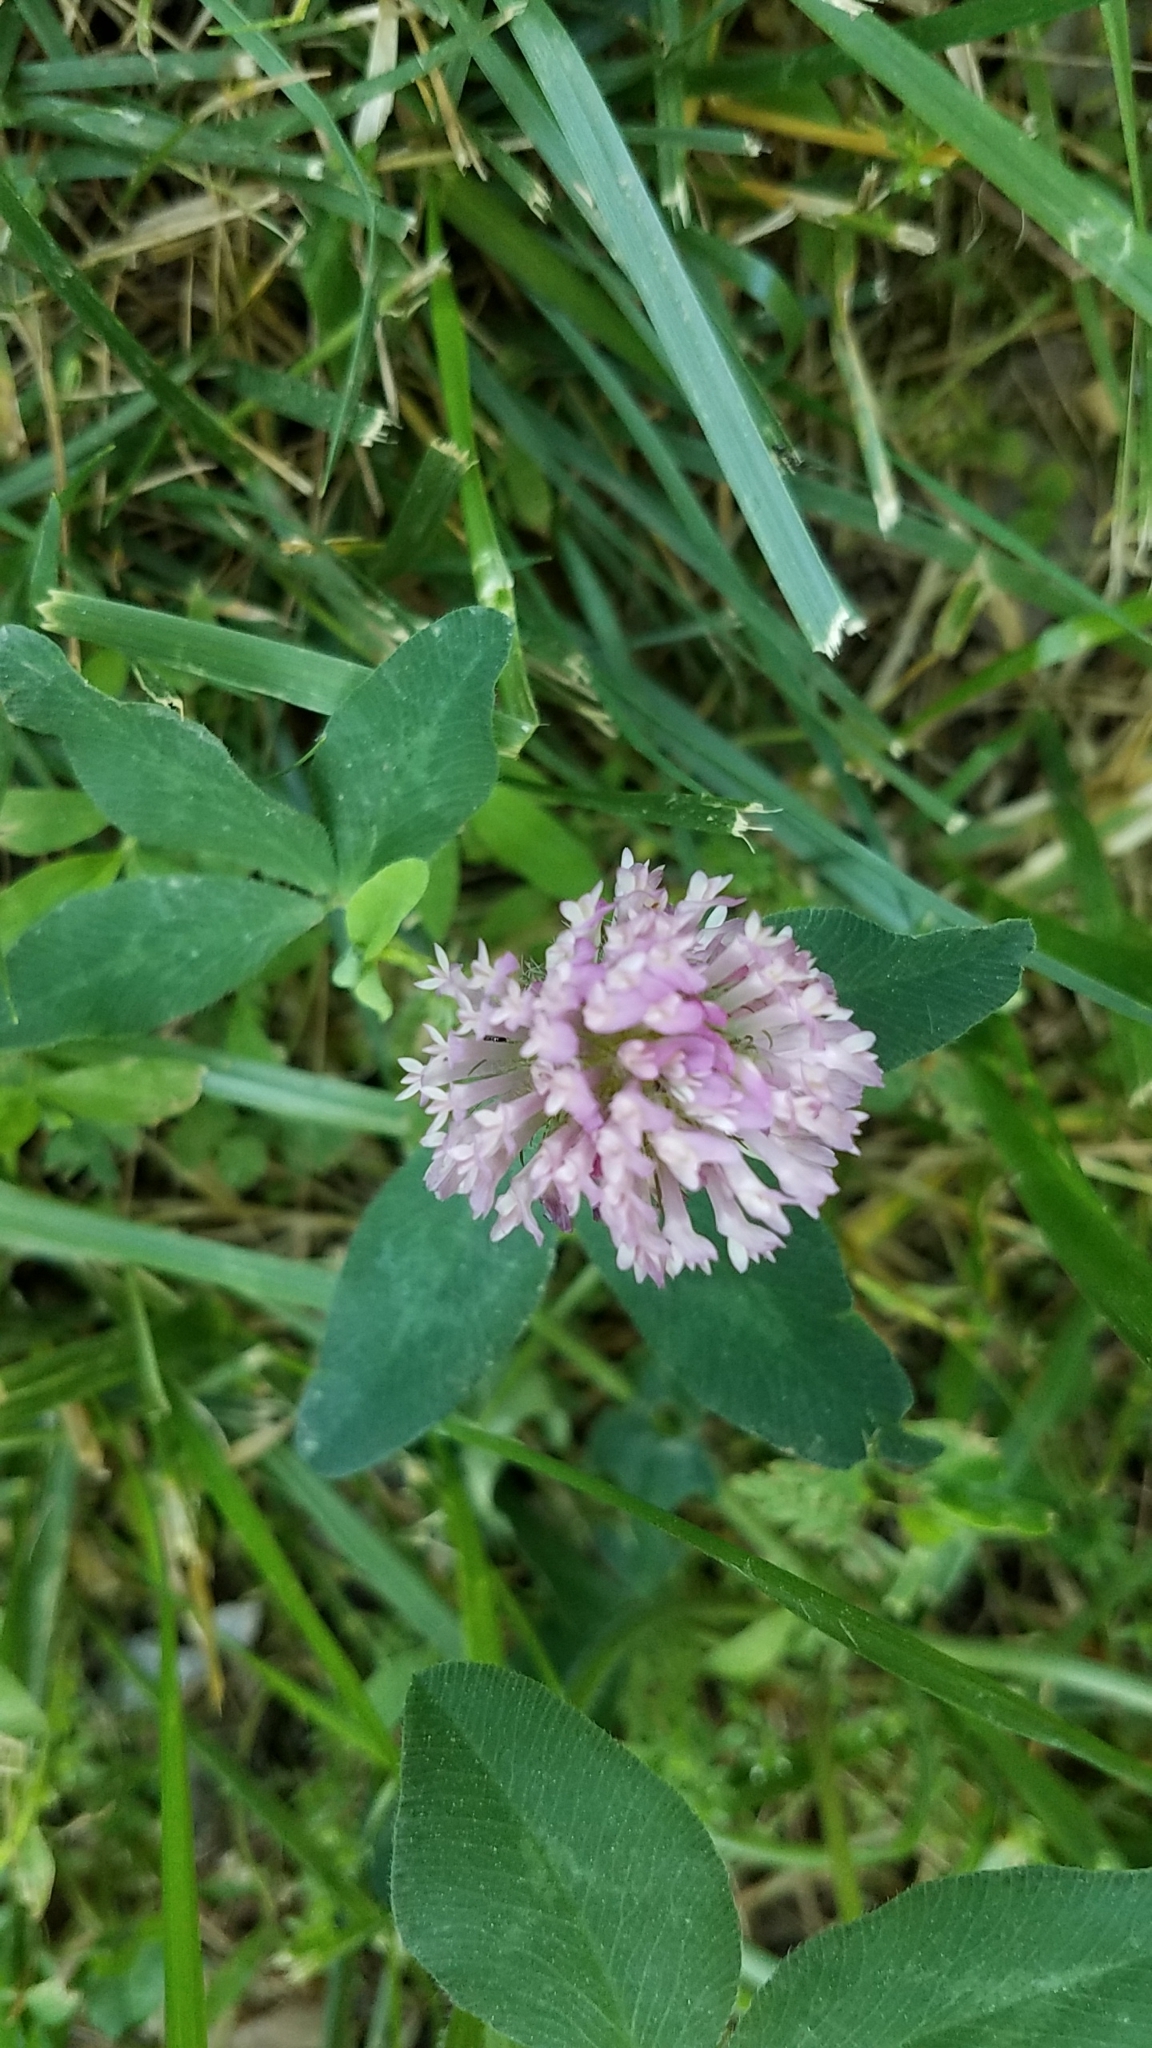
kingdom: Plantae
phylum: Tracheophyta
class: Magnoliopsida
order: Fabales
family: Fabaceae
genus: Trifolium
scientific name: Trifolium pratense
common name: Red clover
